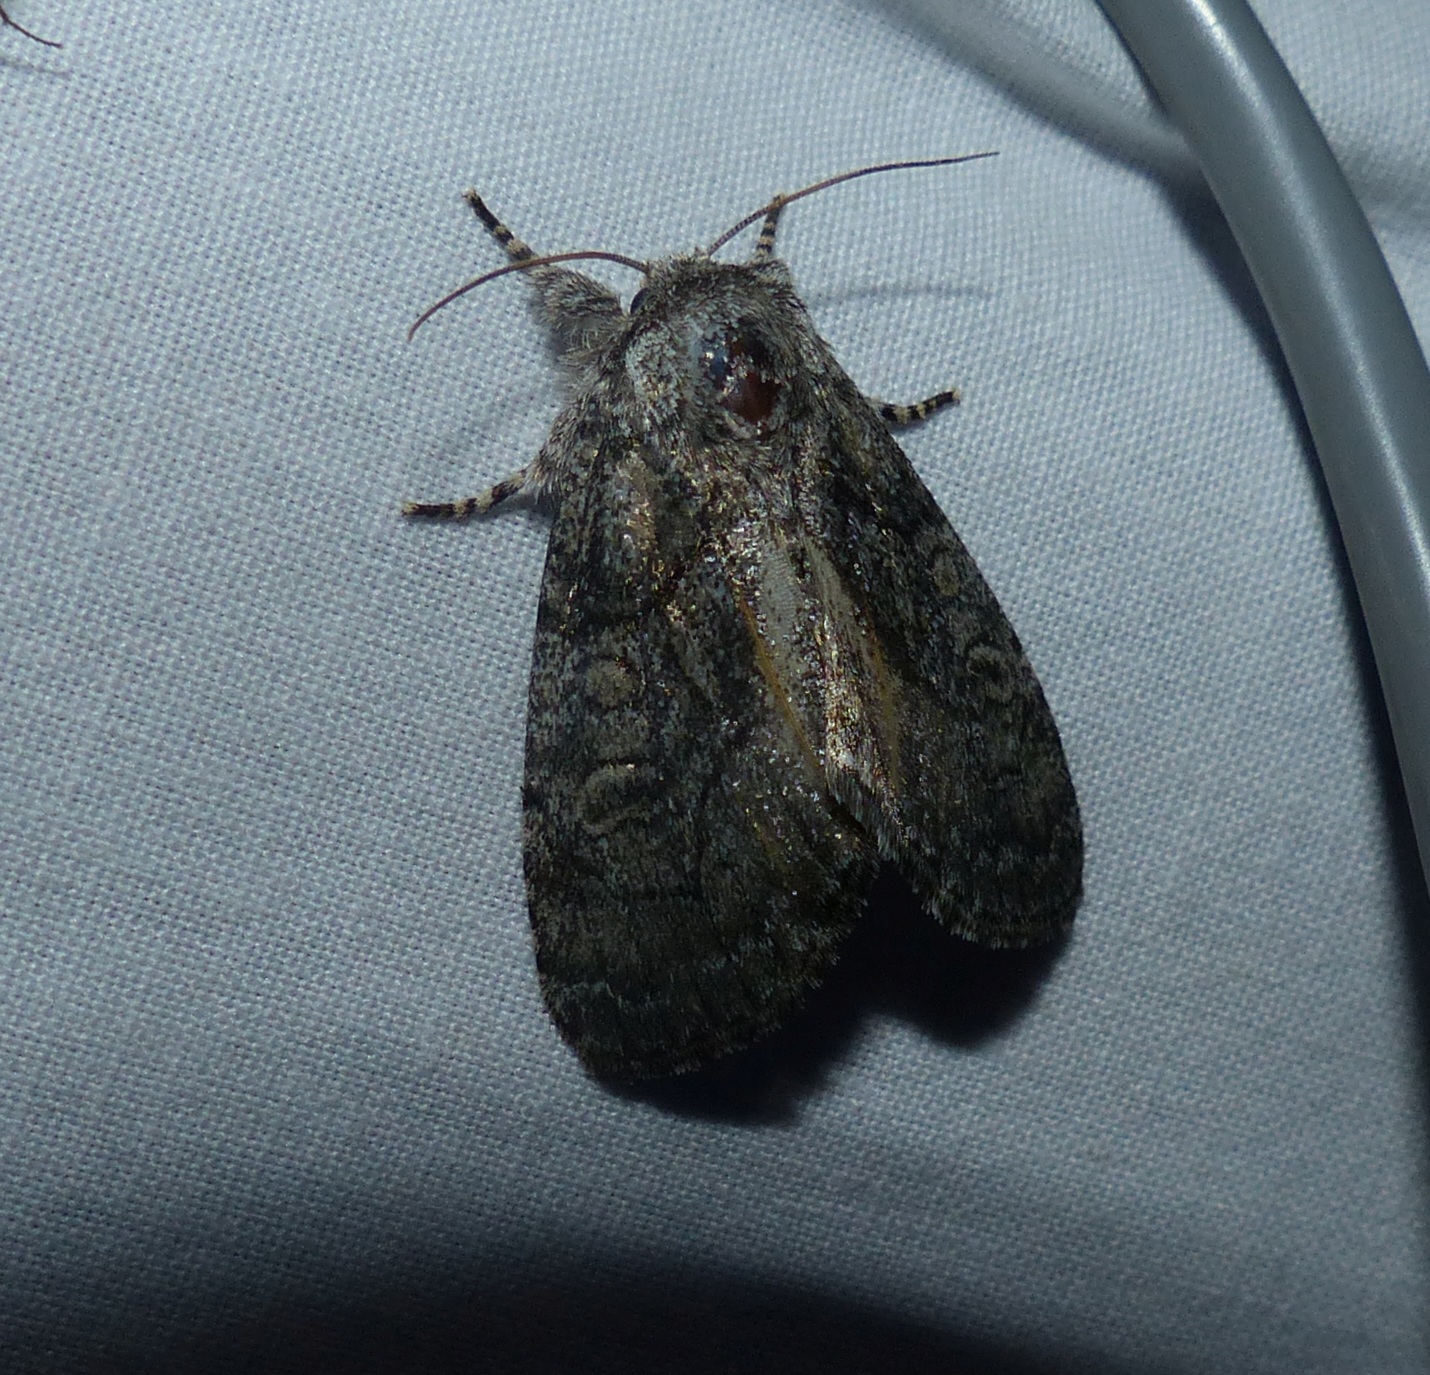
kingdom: Animalia
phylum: Arthropoda
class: Insecta
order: Lepidoptera
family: Noctuidae
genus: Raphia
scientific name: Raphia frater
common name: Brother
